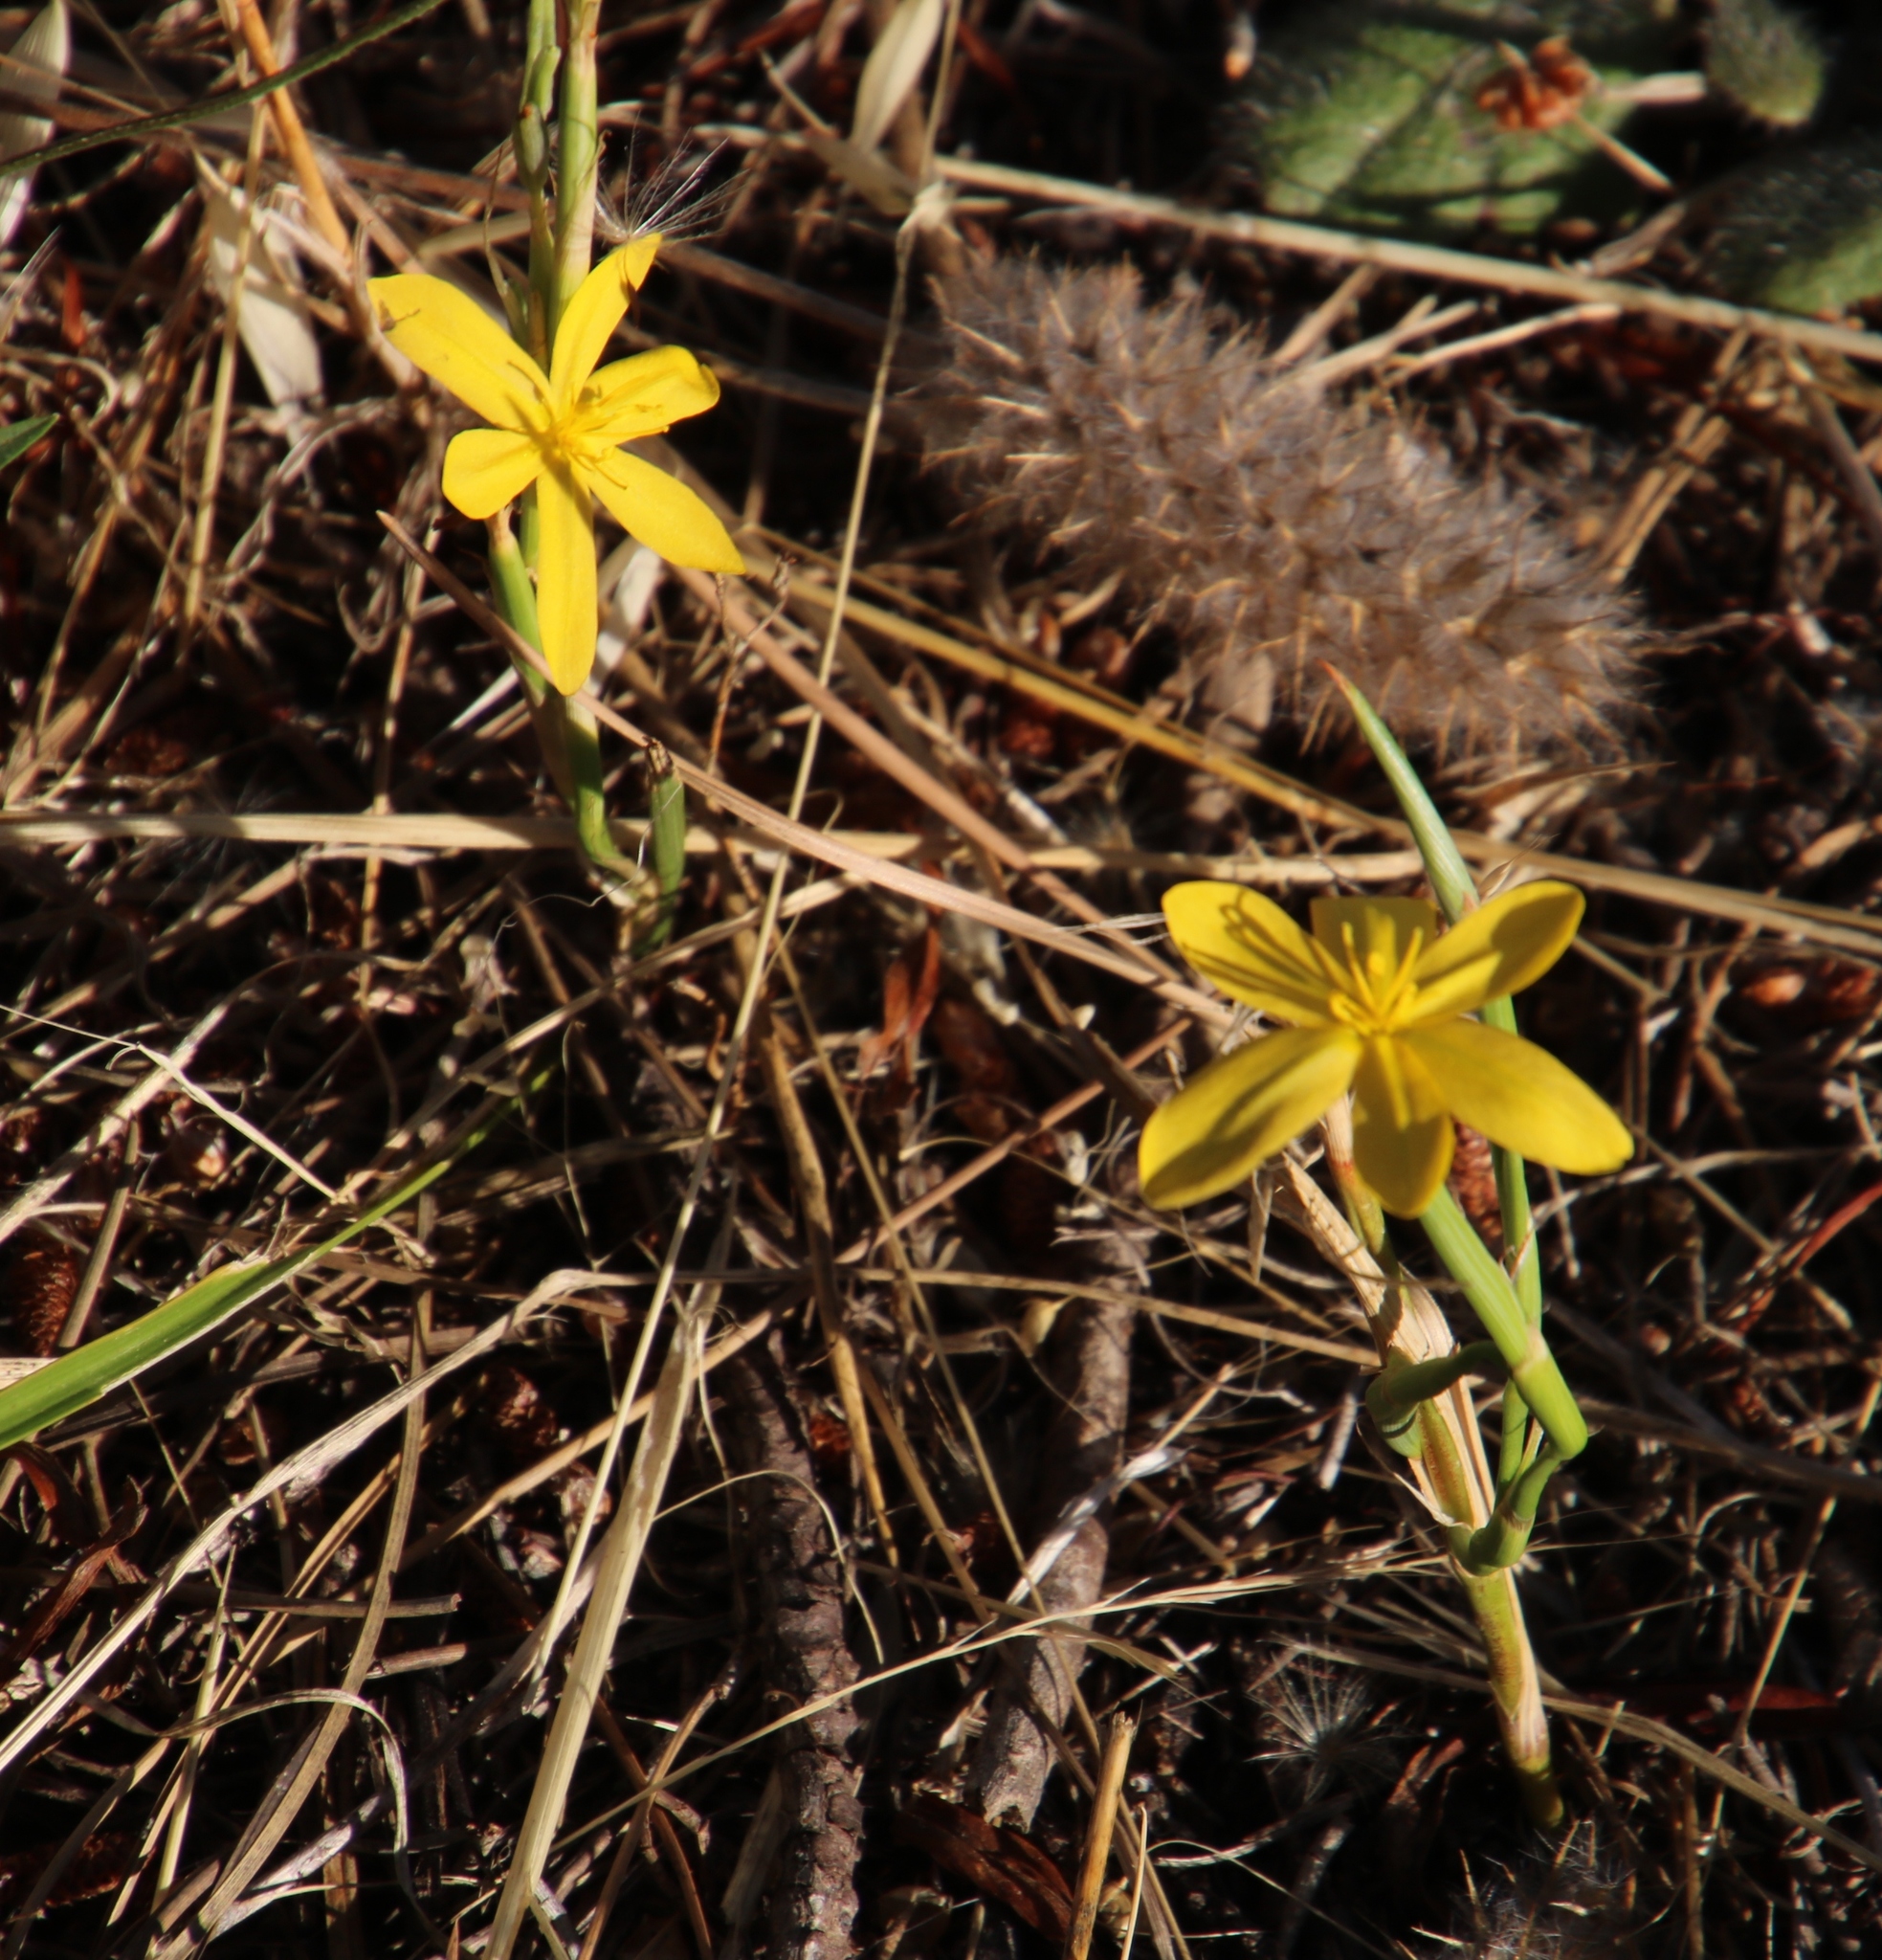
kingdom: Plantae
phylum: Tracheophyta
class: Liliopsida
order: Asparagales
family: Iridaceae
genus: Moraea
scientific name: Moraea lewisiae
